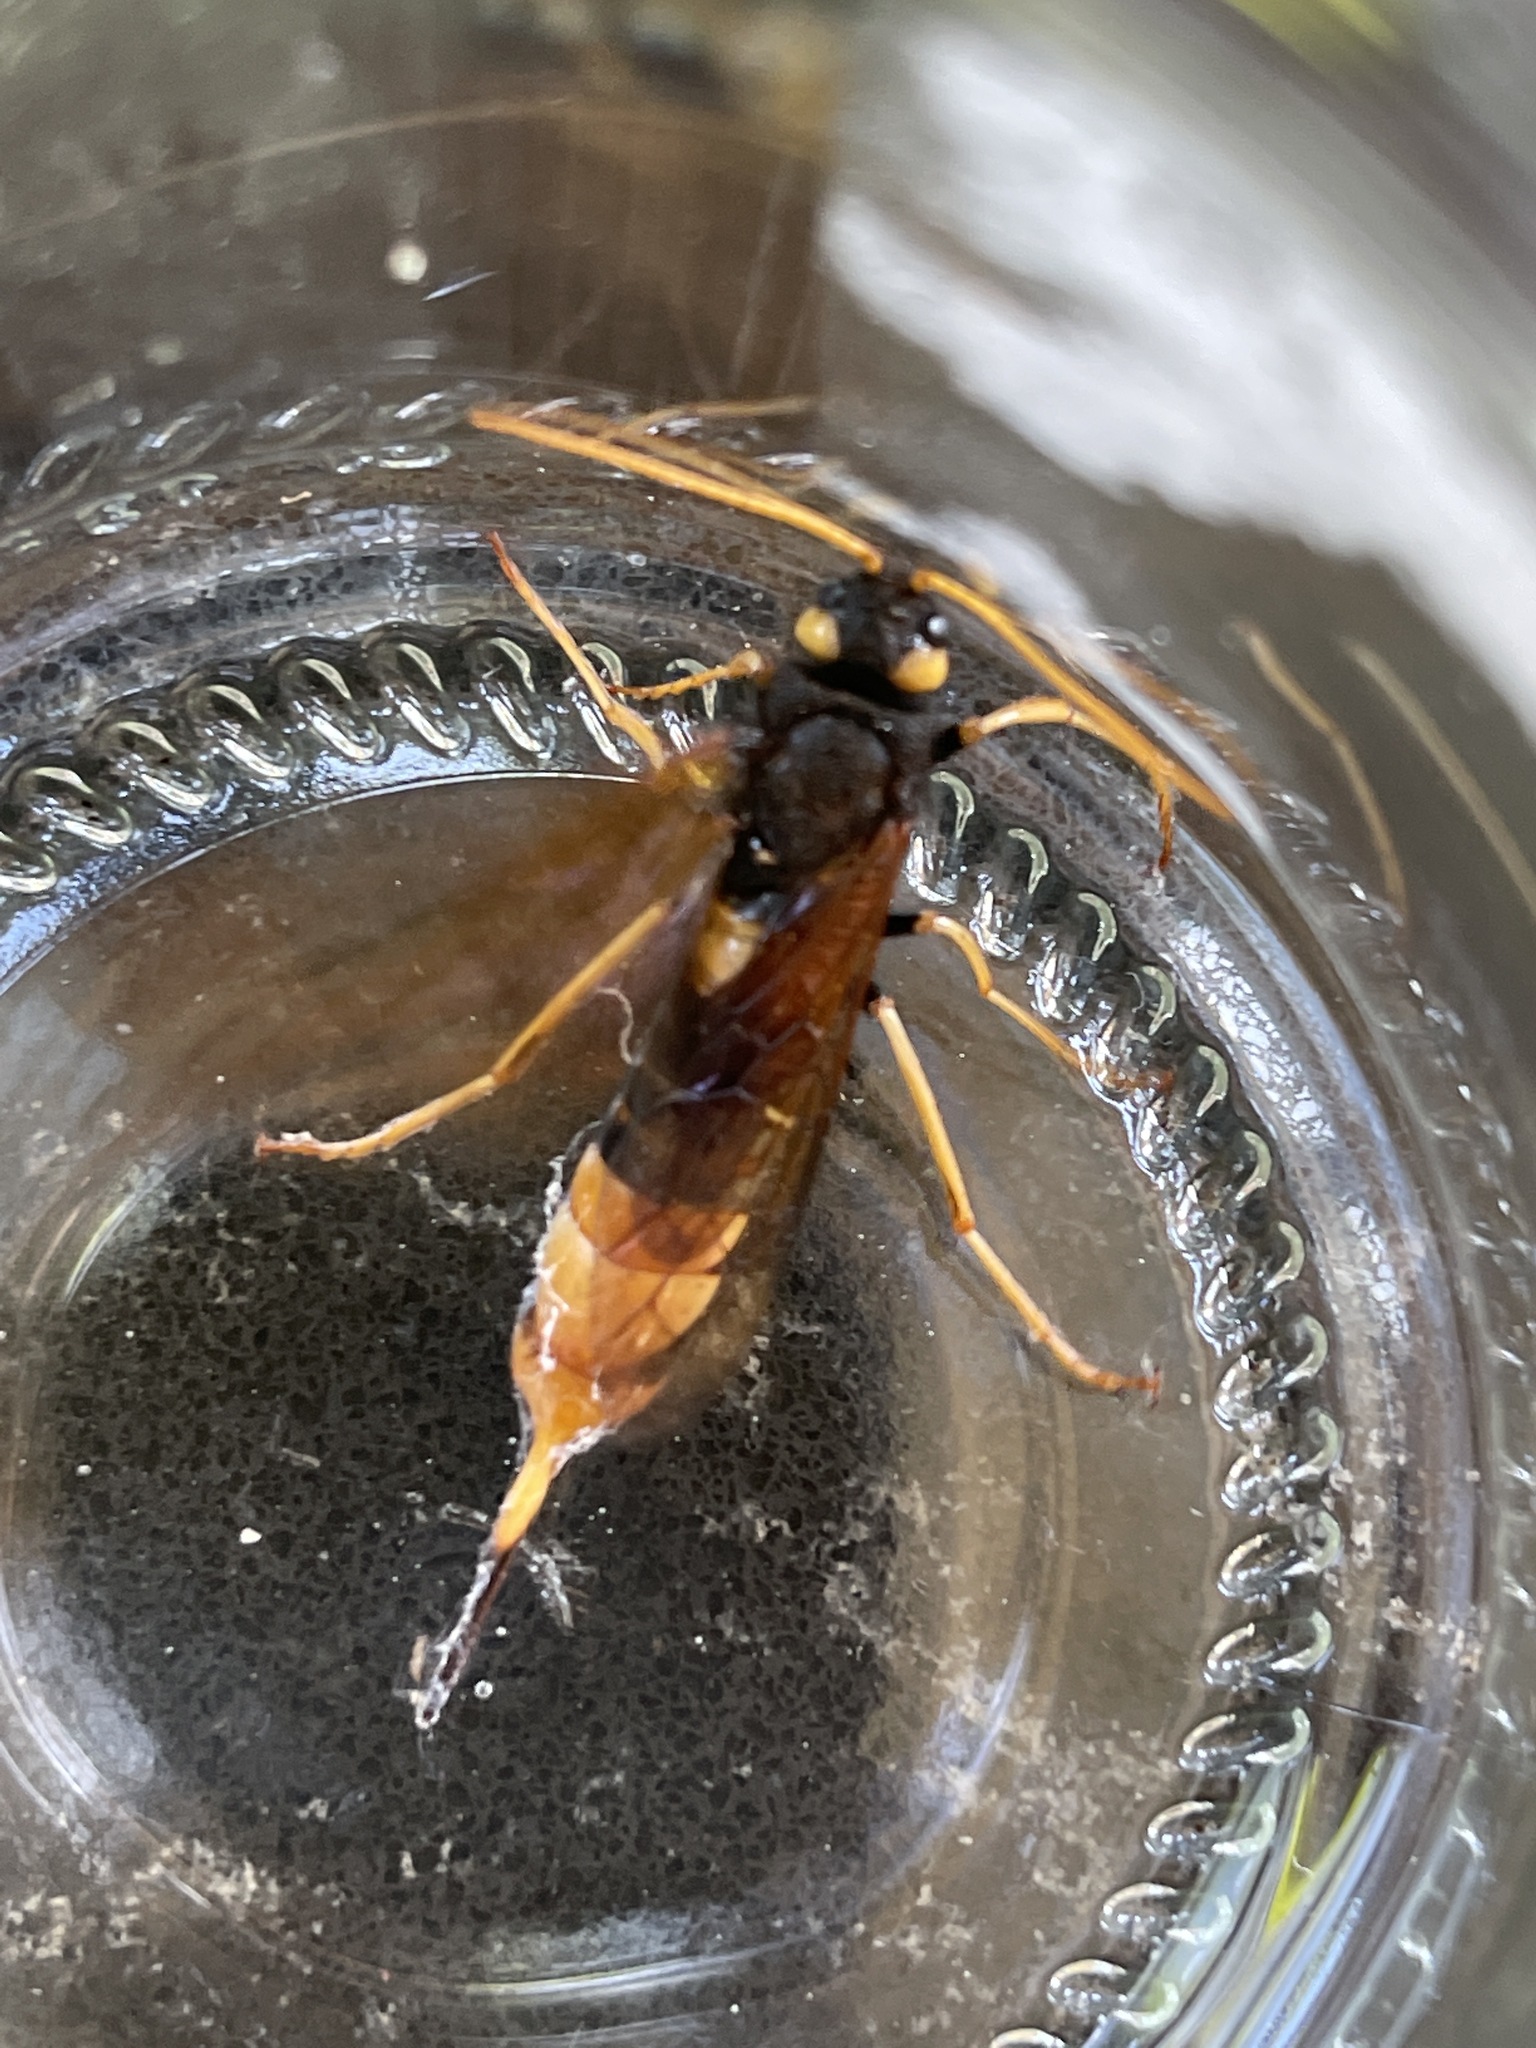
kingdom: Animalia
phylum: Arthropoda
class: Insecta
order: Hymenoptera
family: Siricidae
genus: Urocerus
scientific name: Urocerus gigas
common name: Giant woodwasp
